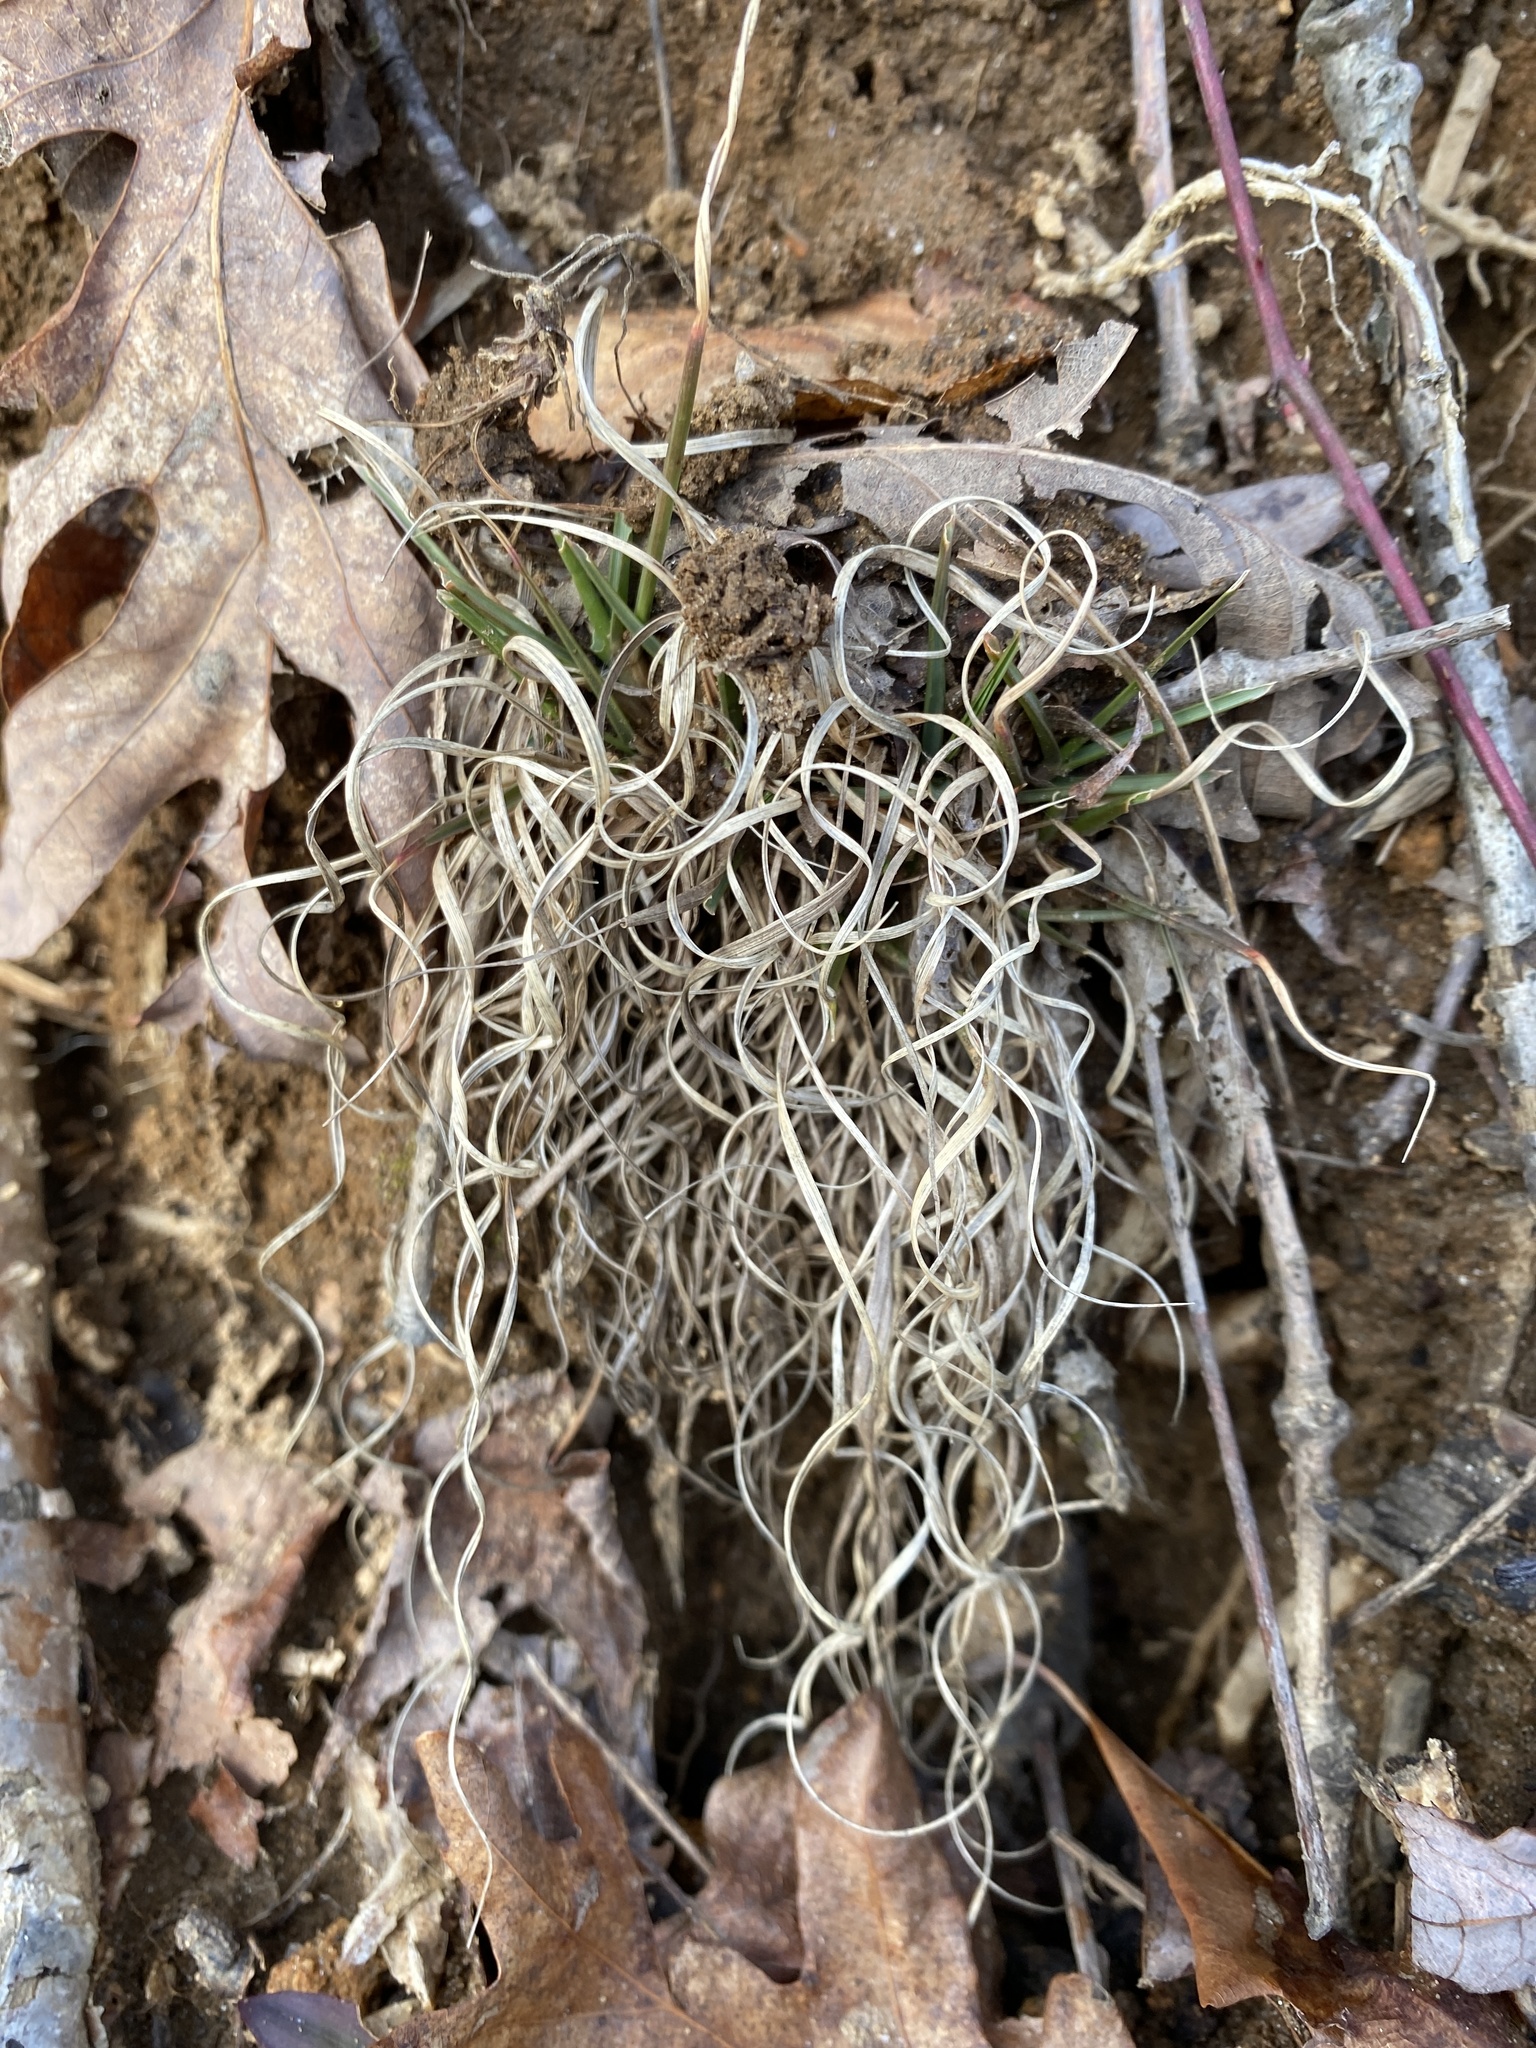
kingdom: Plantae
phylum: Tracheophyta
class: Liliopsida
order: Poales
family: Poaceae
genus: Danthonia
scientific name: Danthonia spicata
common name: Common wild oatgrass
